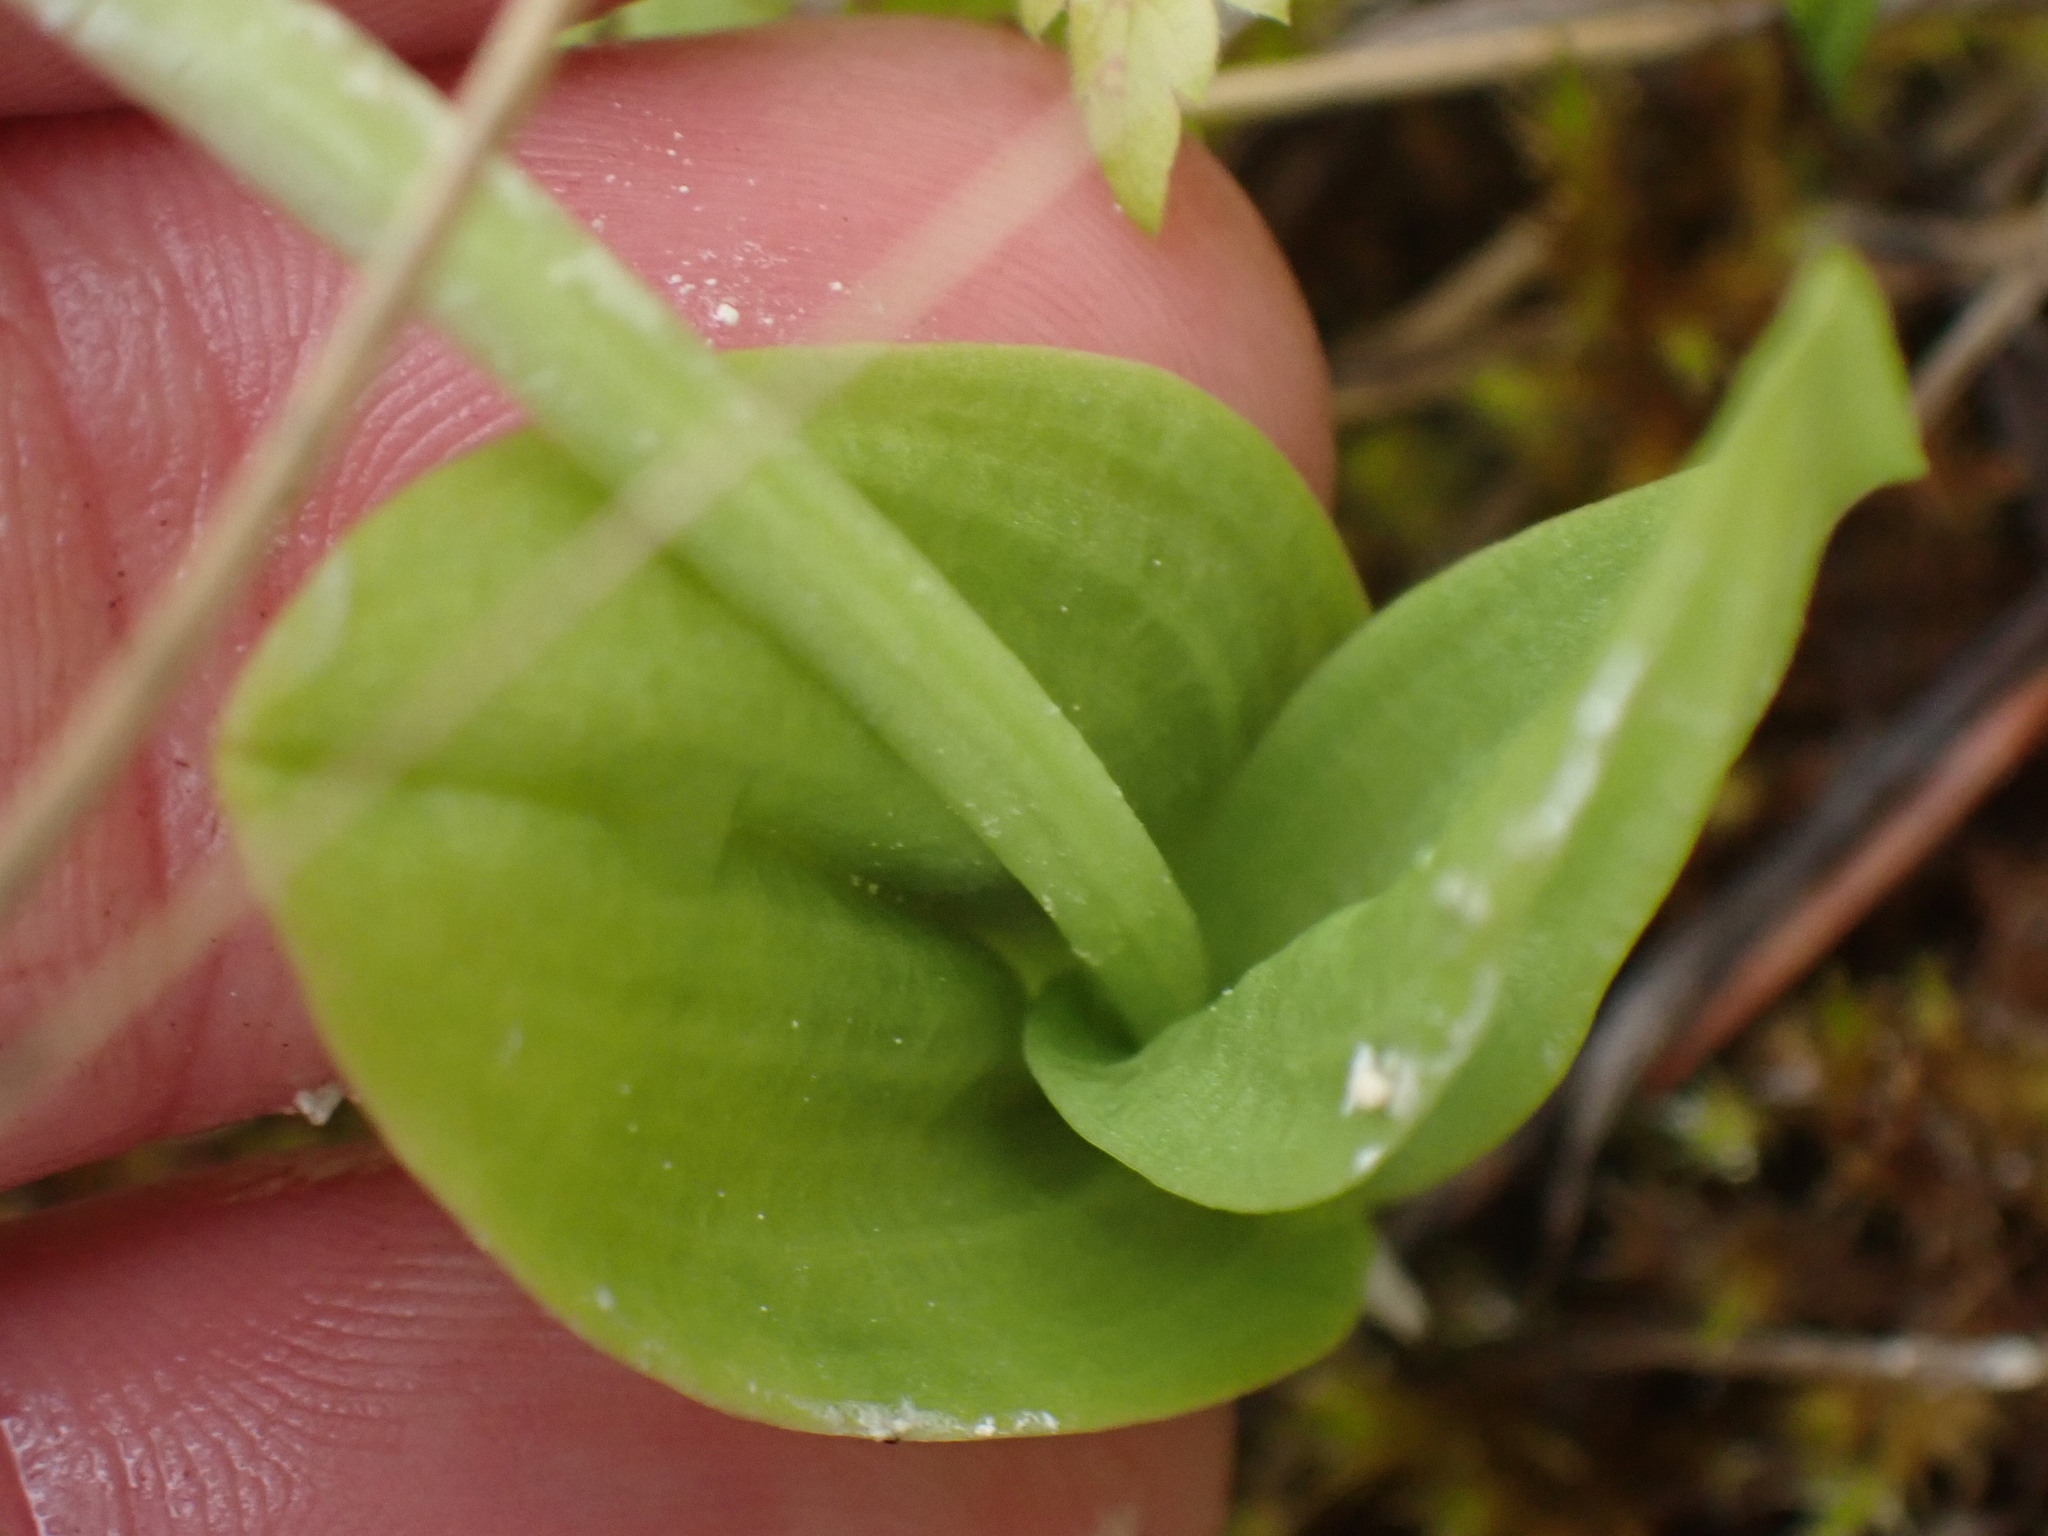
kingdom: Animalia
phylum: Arthropoda
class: Insecta
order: Coleoptera
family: Curculionidae
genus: Liparis
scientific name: Liparis loeselii
